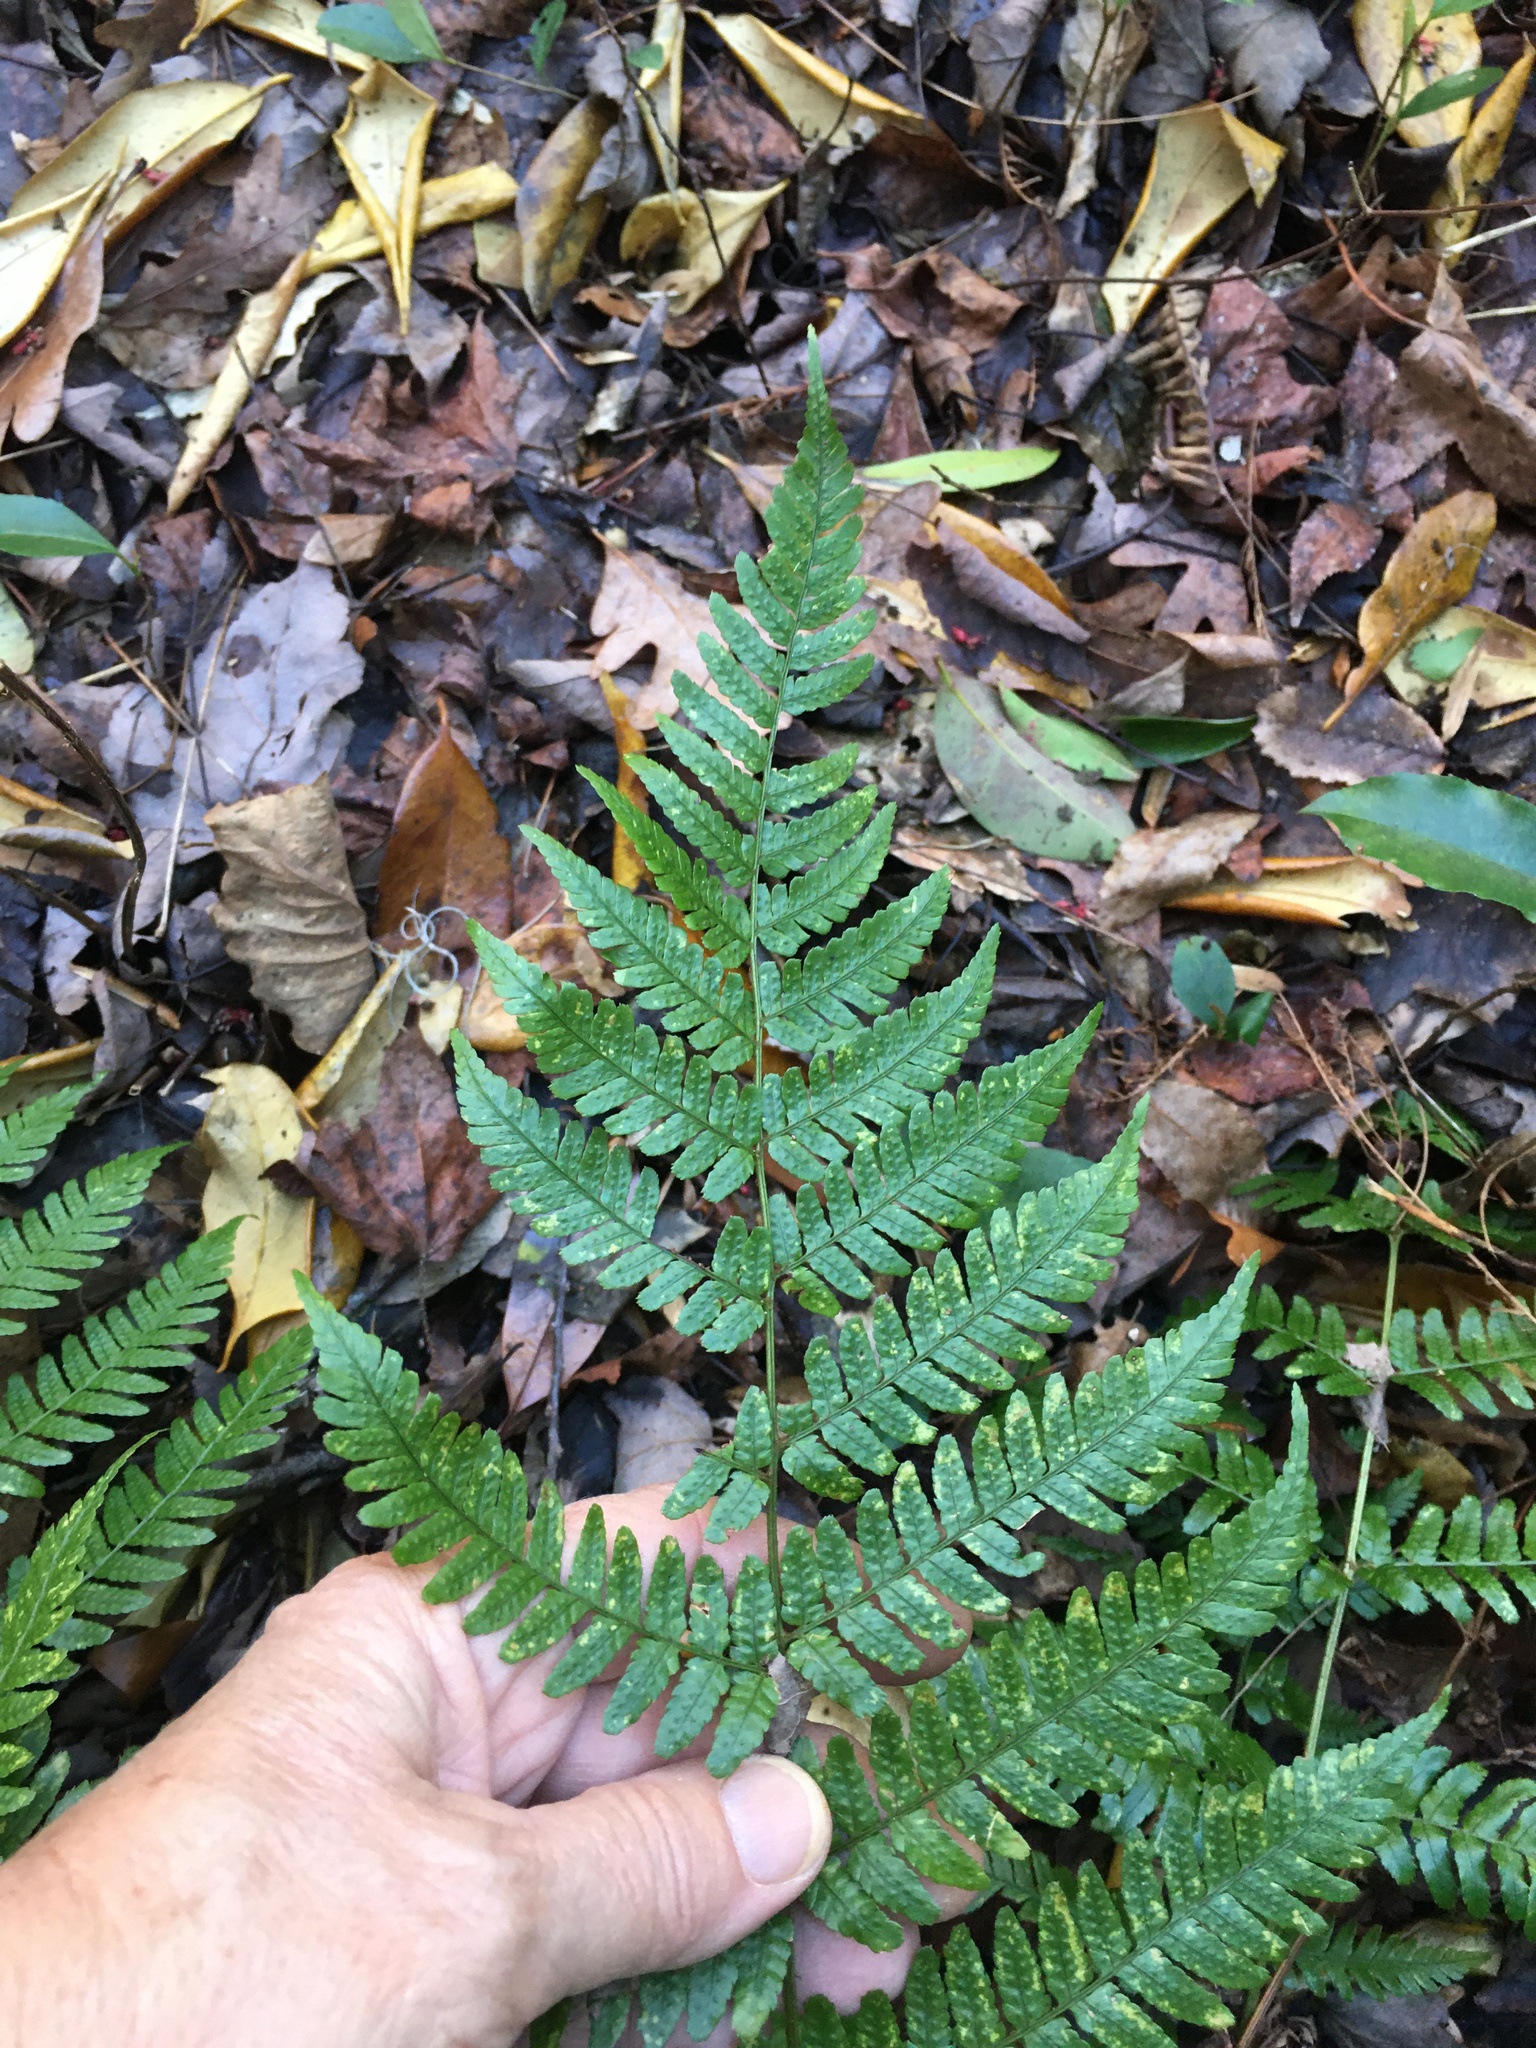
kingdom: Plantae
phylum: Tracheophyta
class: Polypodiopsida
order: Polypodiales
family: Dryopteridaceae
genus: Dryopteris
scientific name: Dryopteris erythrosora
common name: Autumn fern
